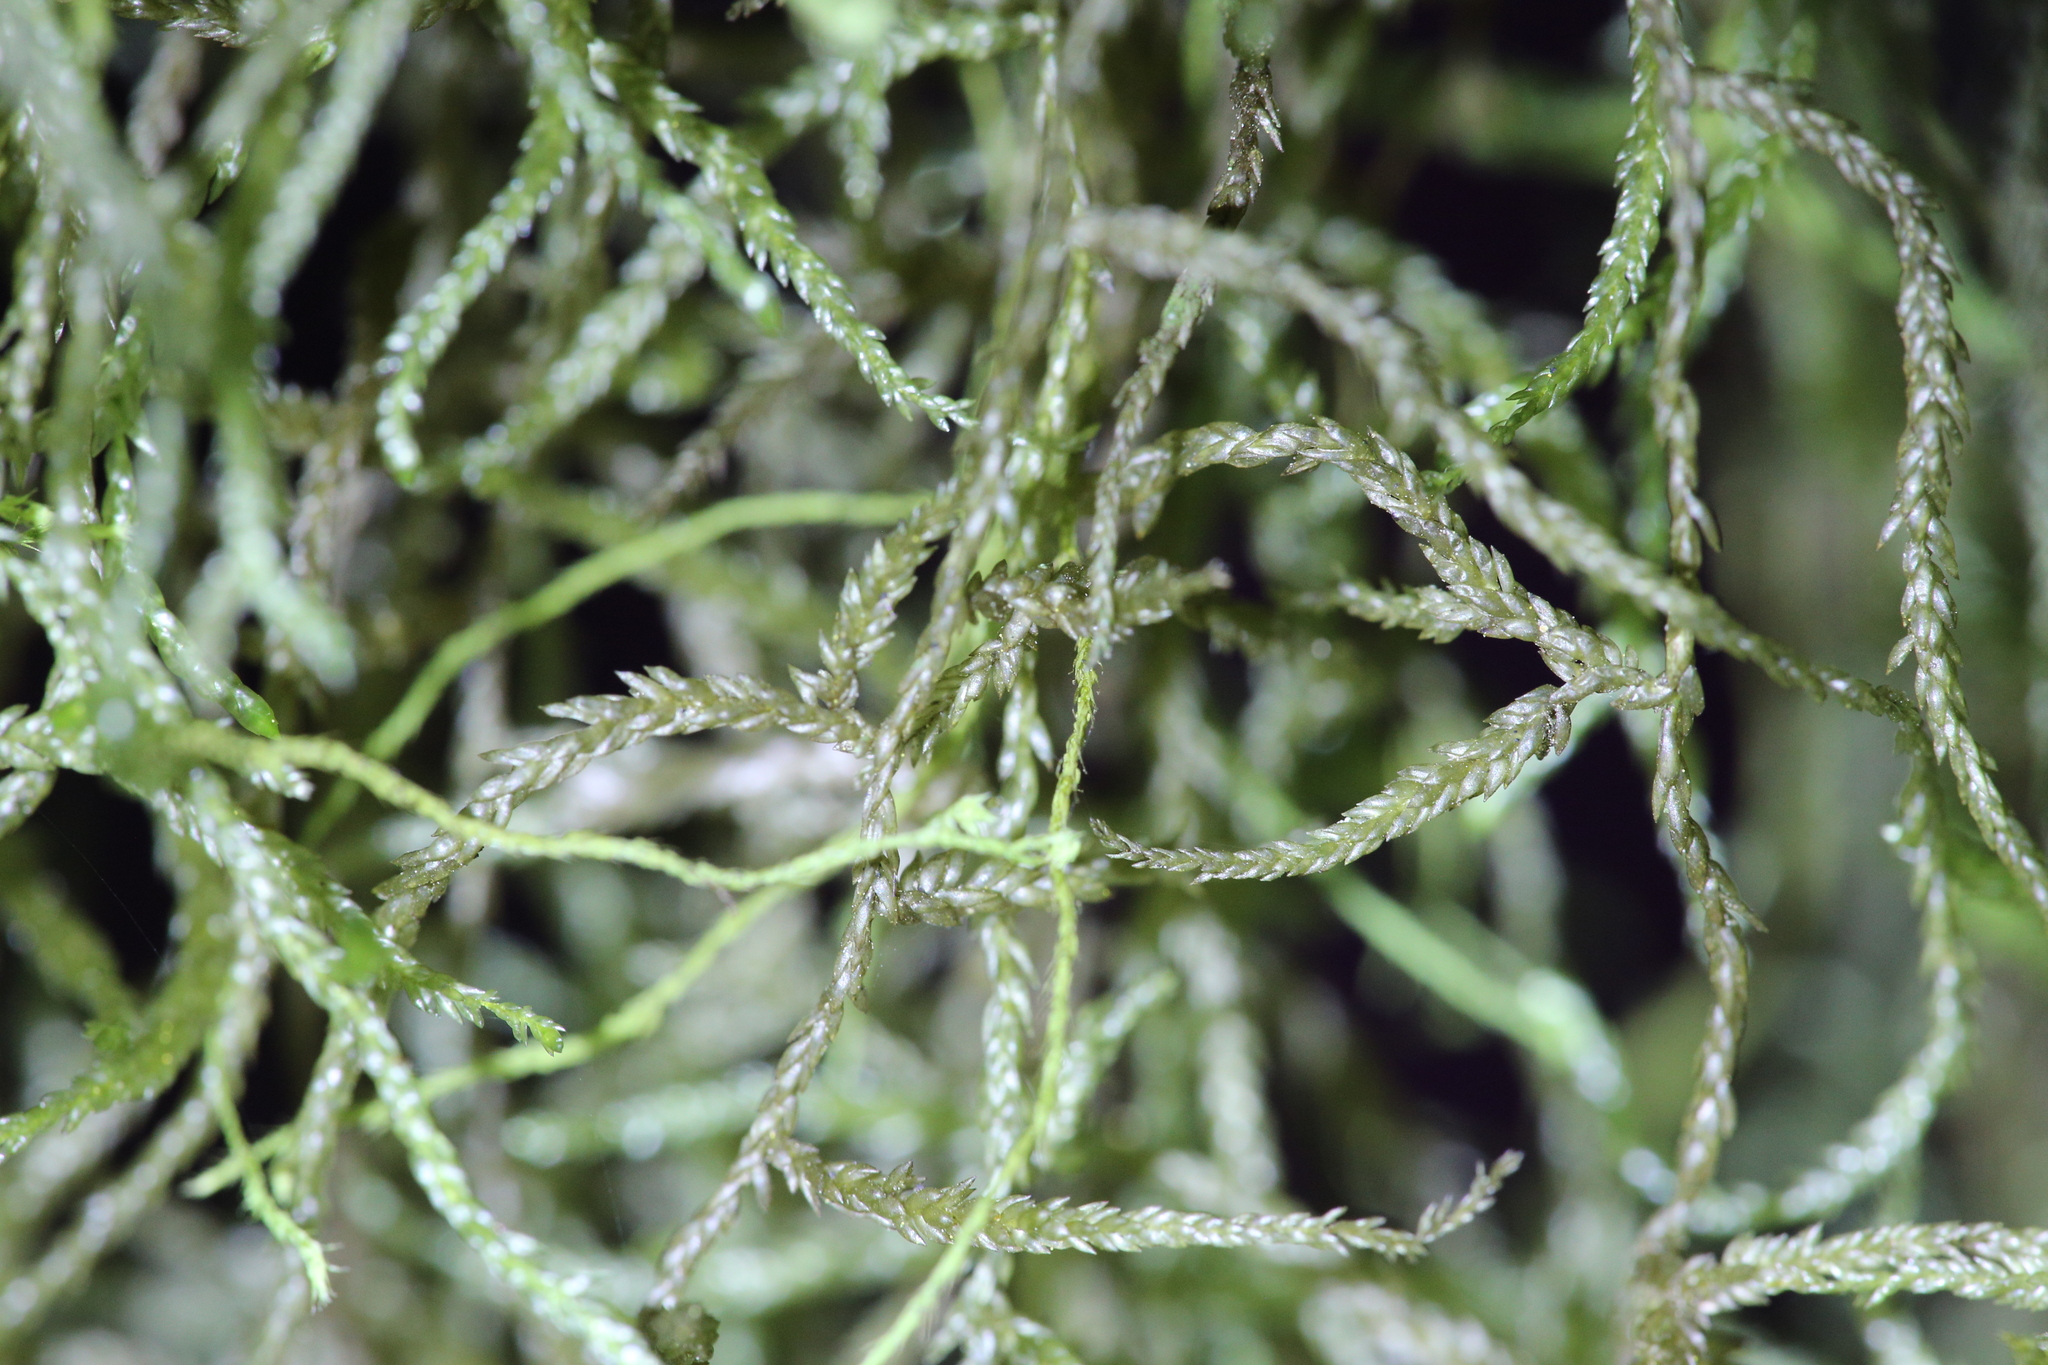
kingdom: Plantae
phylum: Bryophyta
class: Bryopsida
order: Hypnales
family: Lembophyllaceae
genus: Weymouthia
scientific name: Weymouthia mollis
